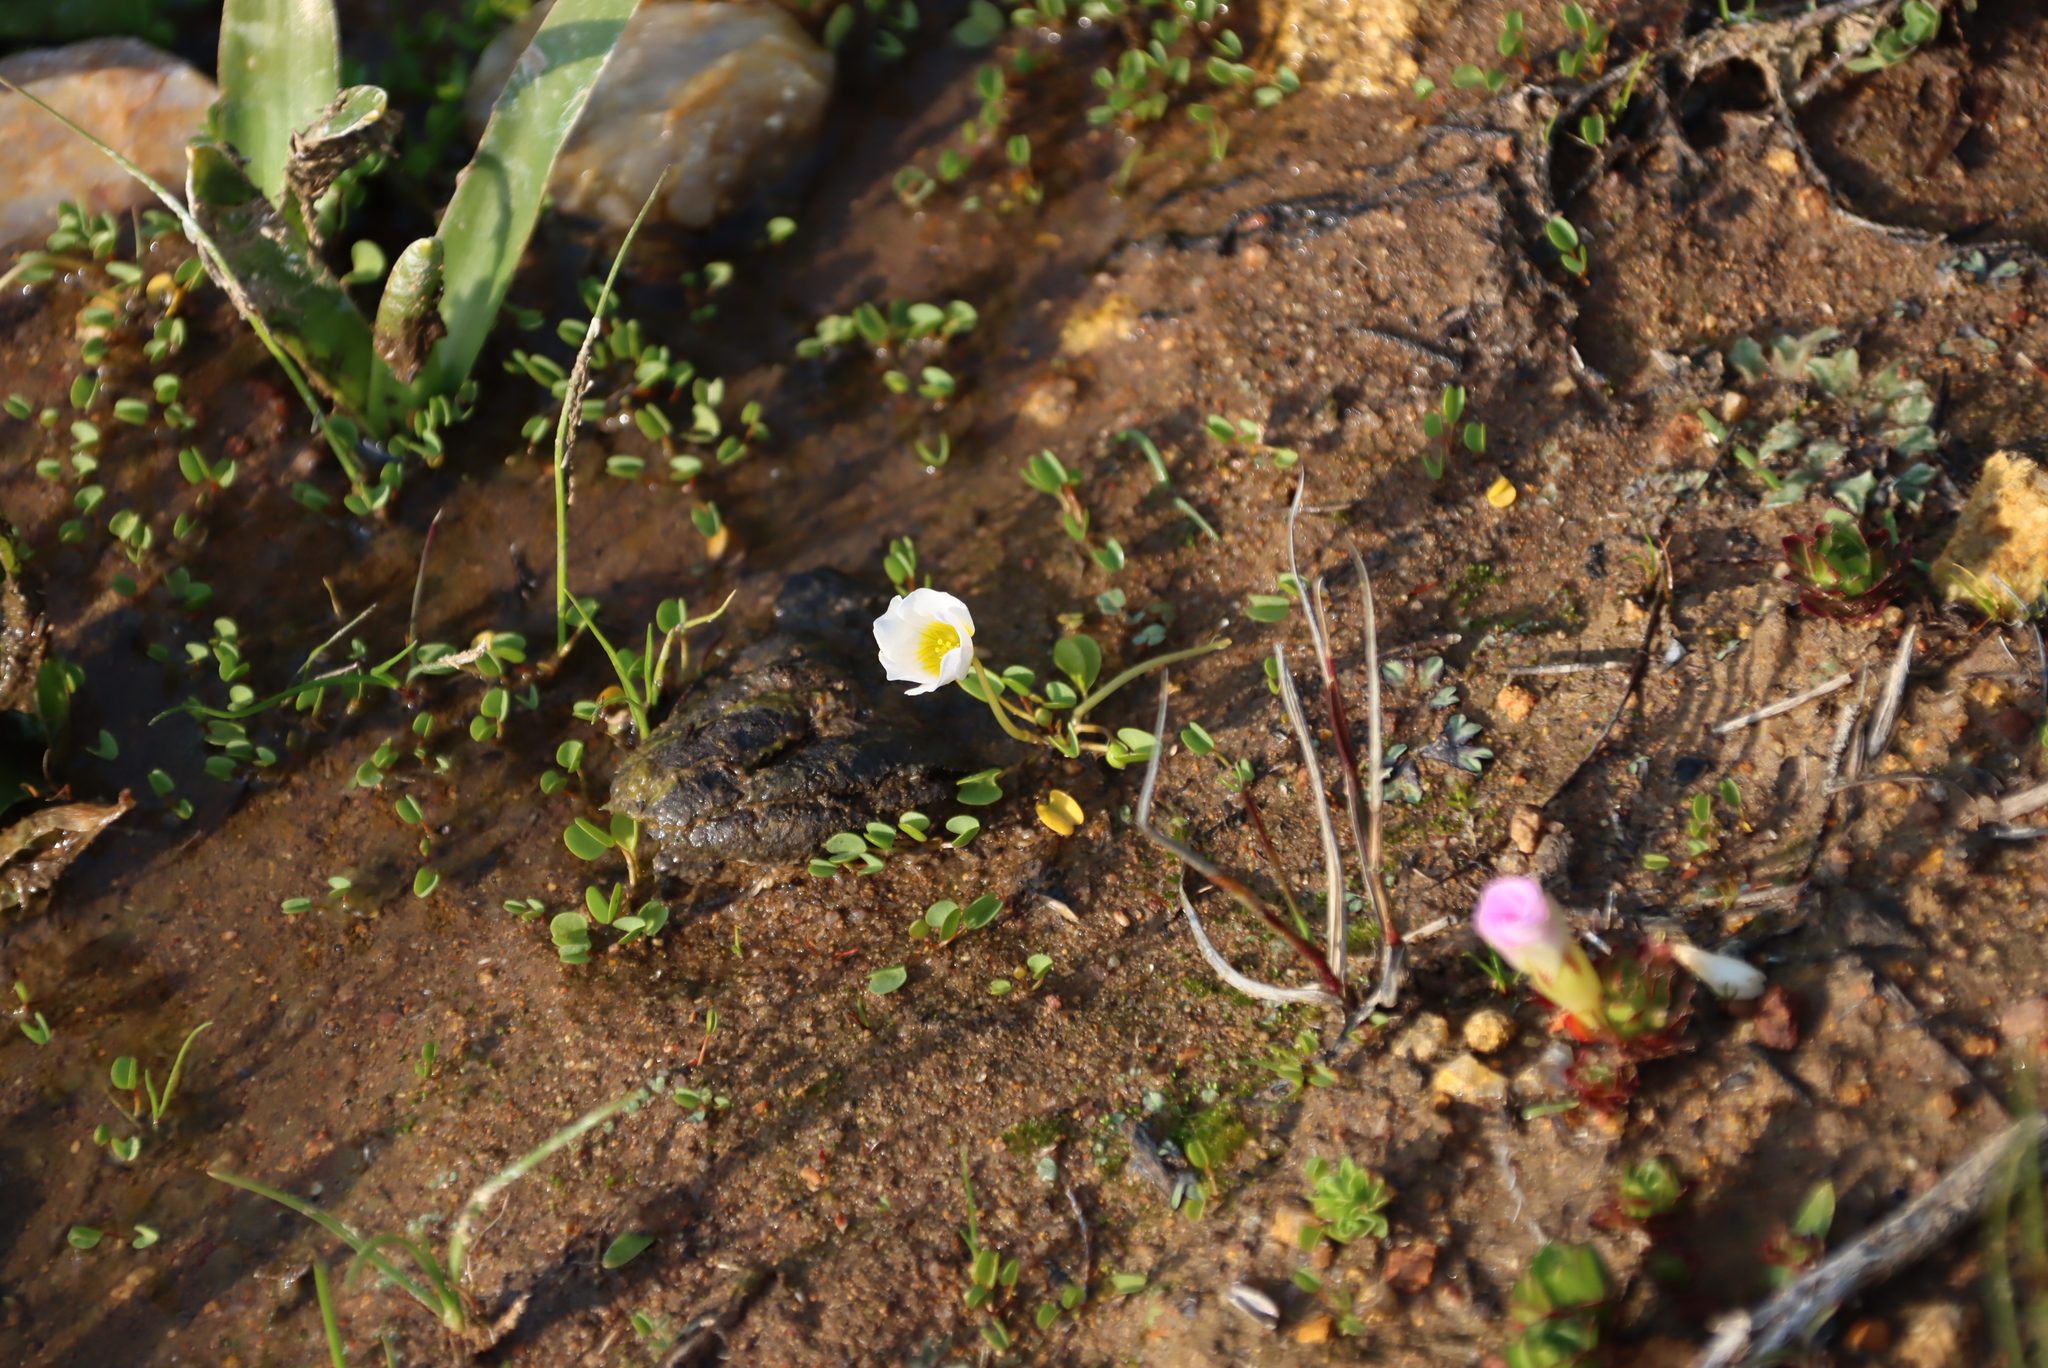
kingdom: Plantae
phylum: Tracheophyta
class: Magnoliopsida
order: Oxalidales
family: Oxalidaceae
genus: Oxalis
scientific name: Oxalis adenodes
